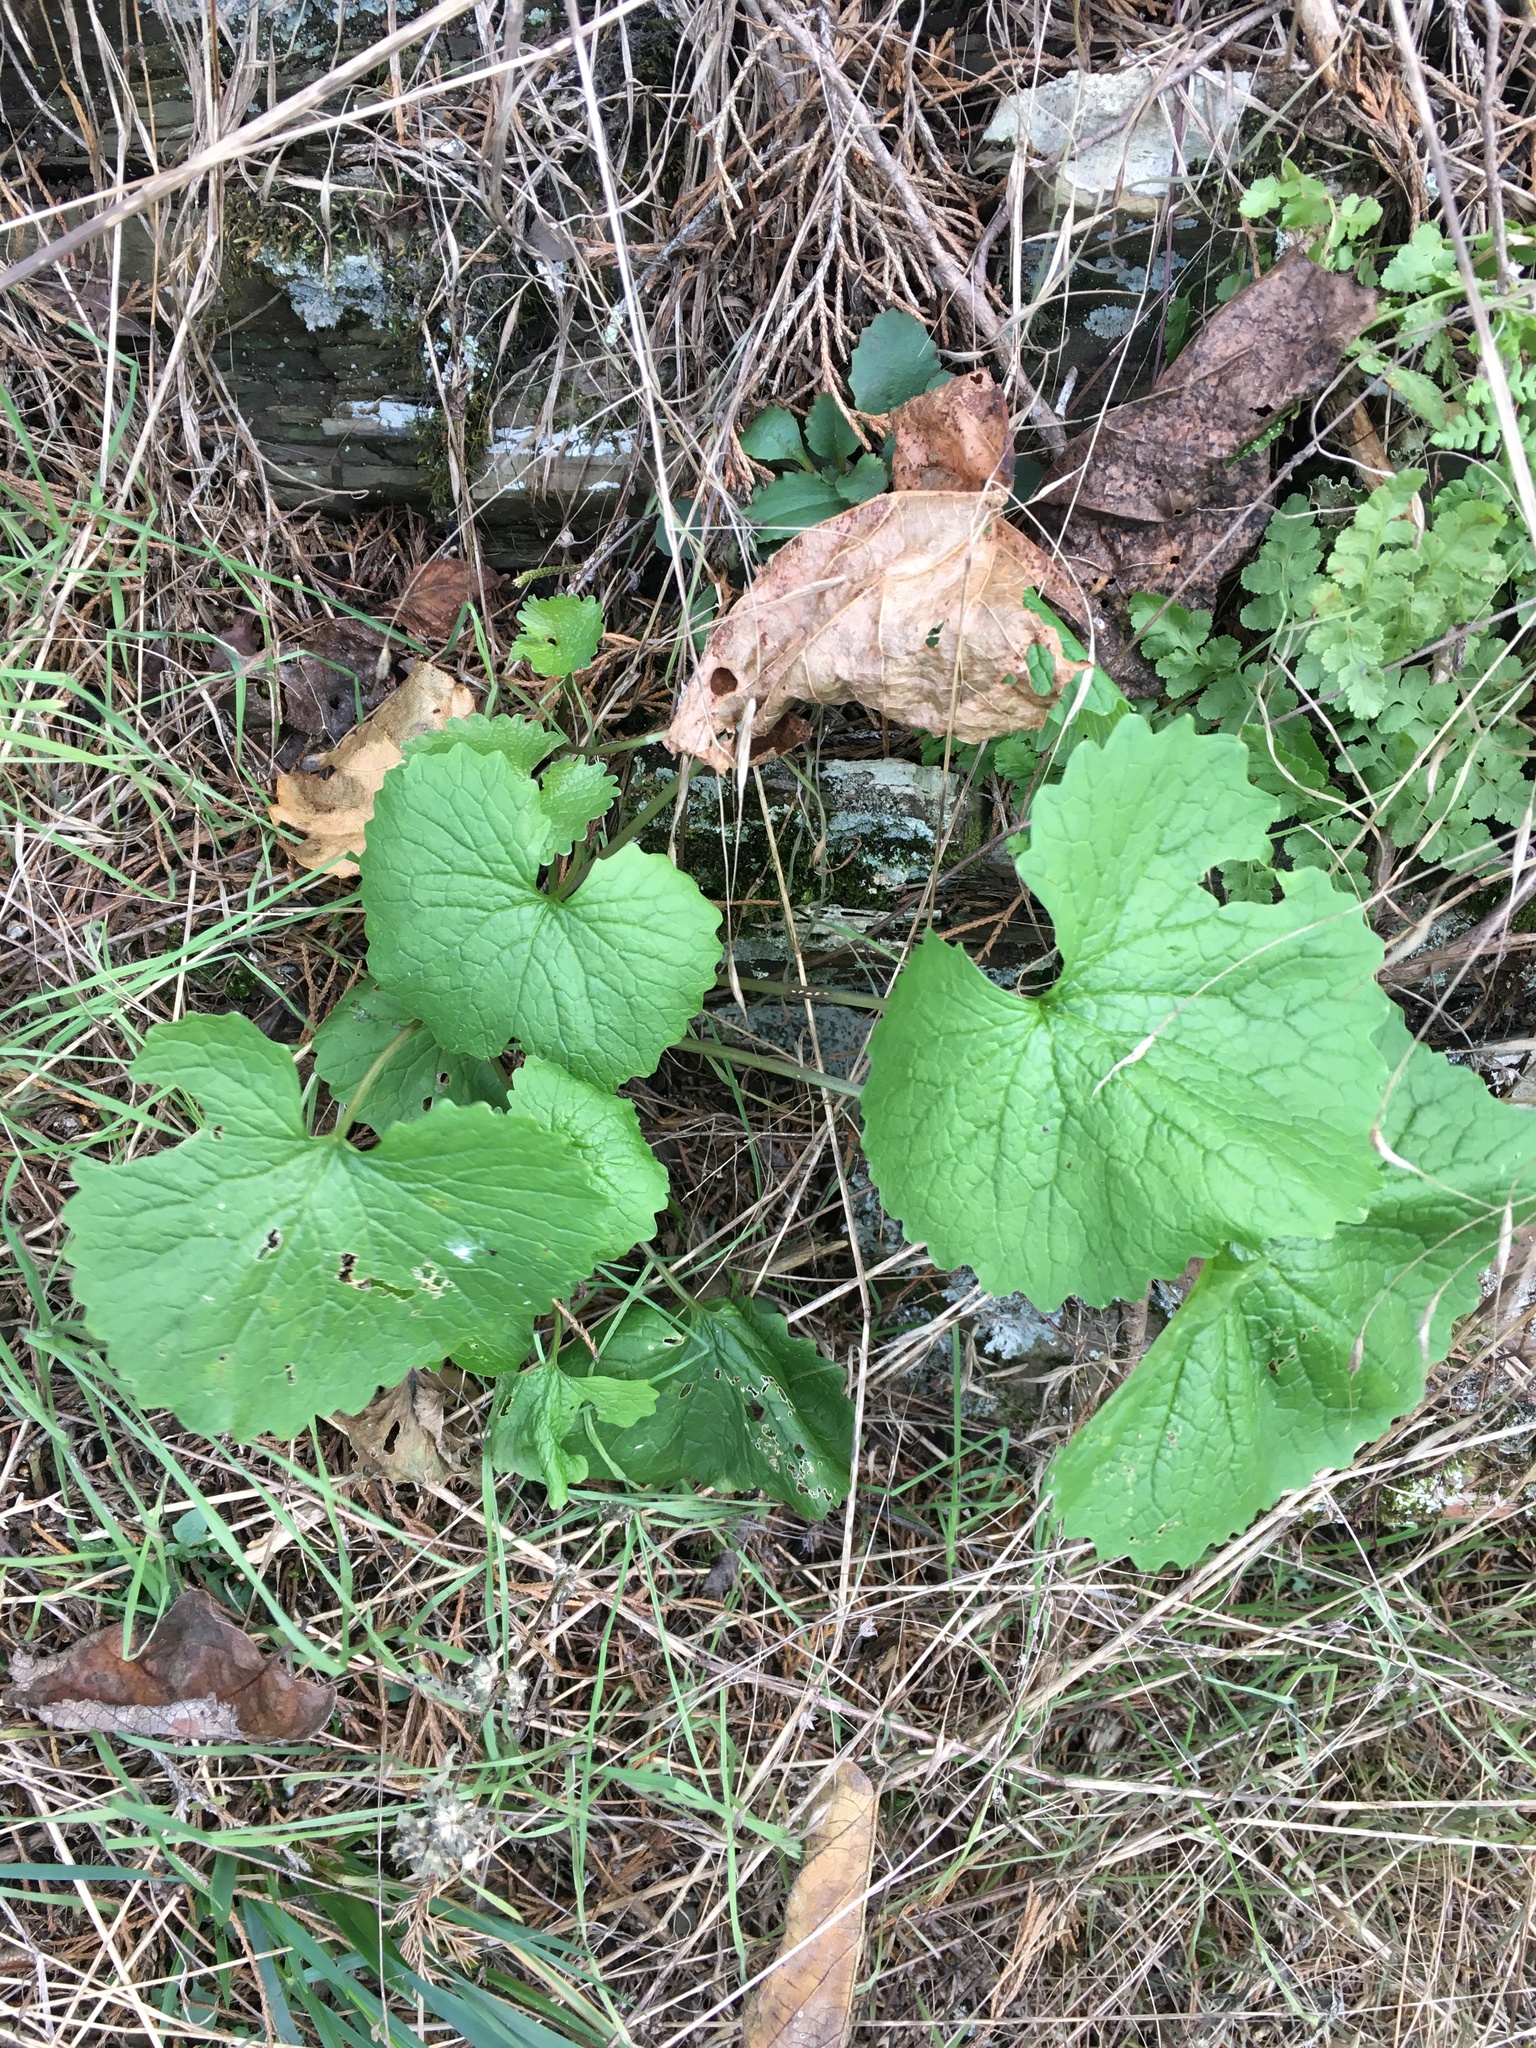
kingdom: Plantae
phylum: Tracheophyta
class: Magnoliopsida
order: Brassicales
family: Brassicaceae
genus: Alliaria
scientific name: Alliaria petiolata
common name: Garlic mustard
